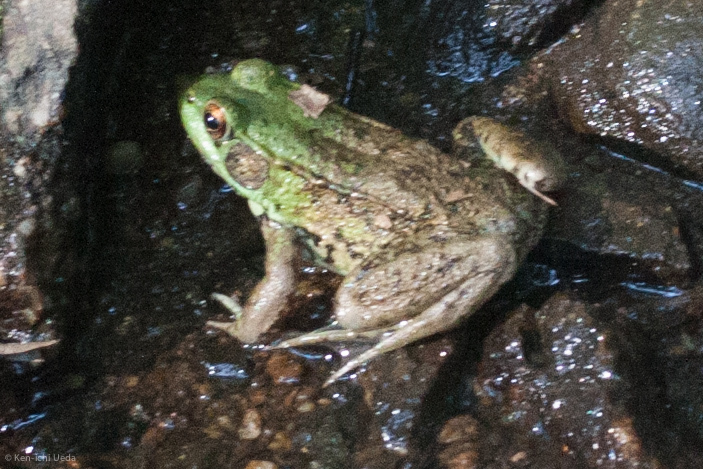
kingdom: Animalia
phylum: Chordata
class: Amphibia
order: Anura
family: Ranidae
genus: Lithobates
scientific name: Lithobates clamitans
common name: Green frog
